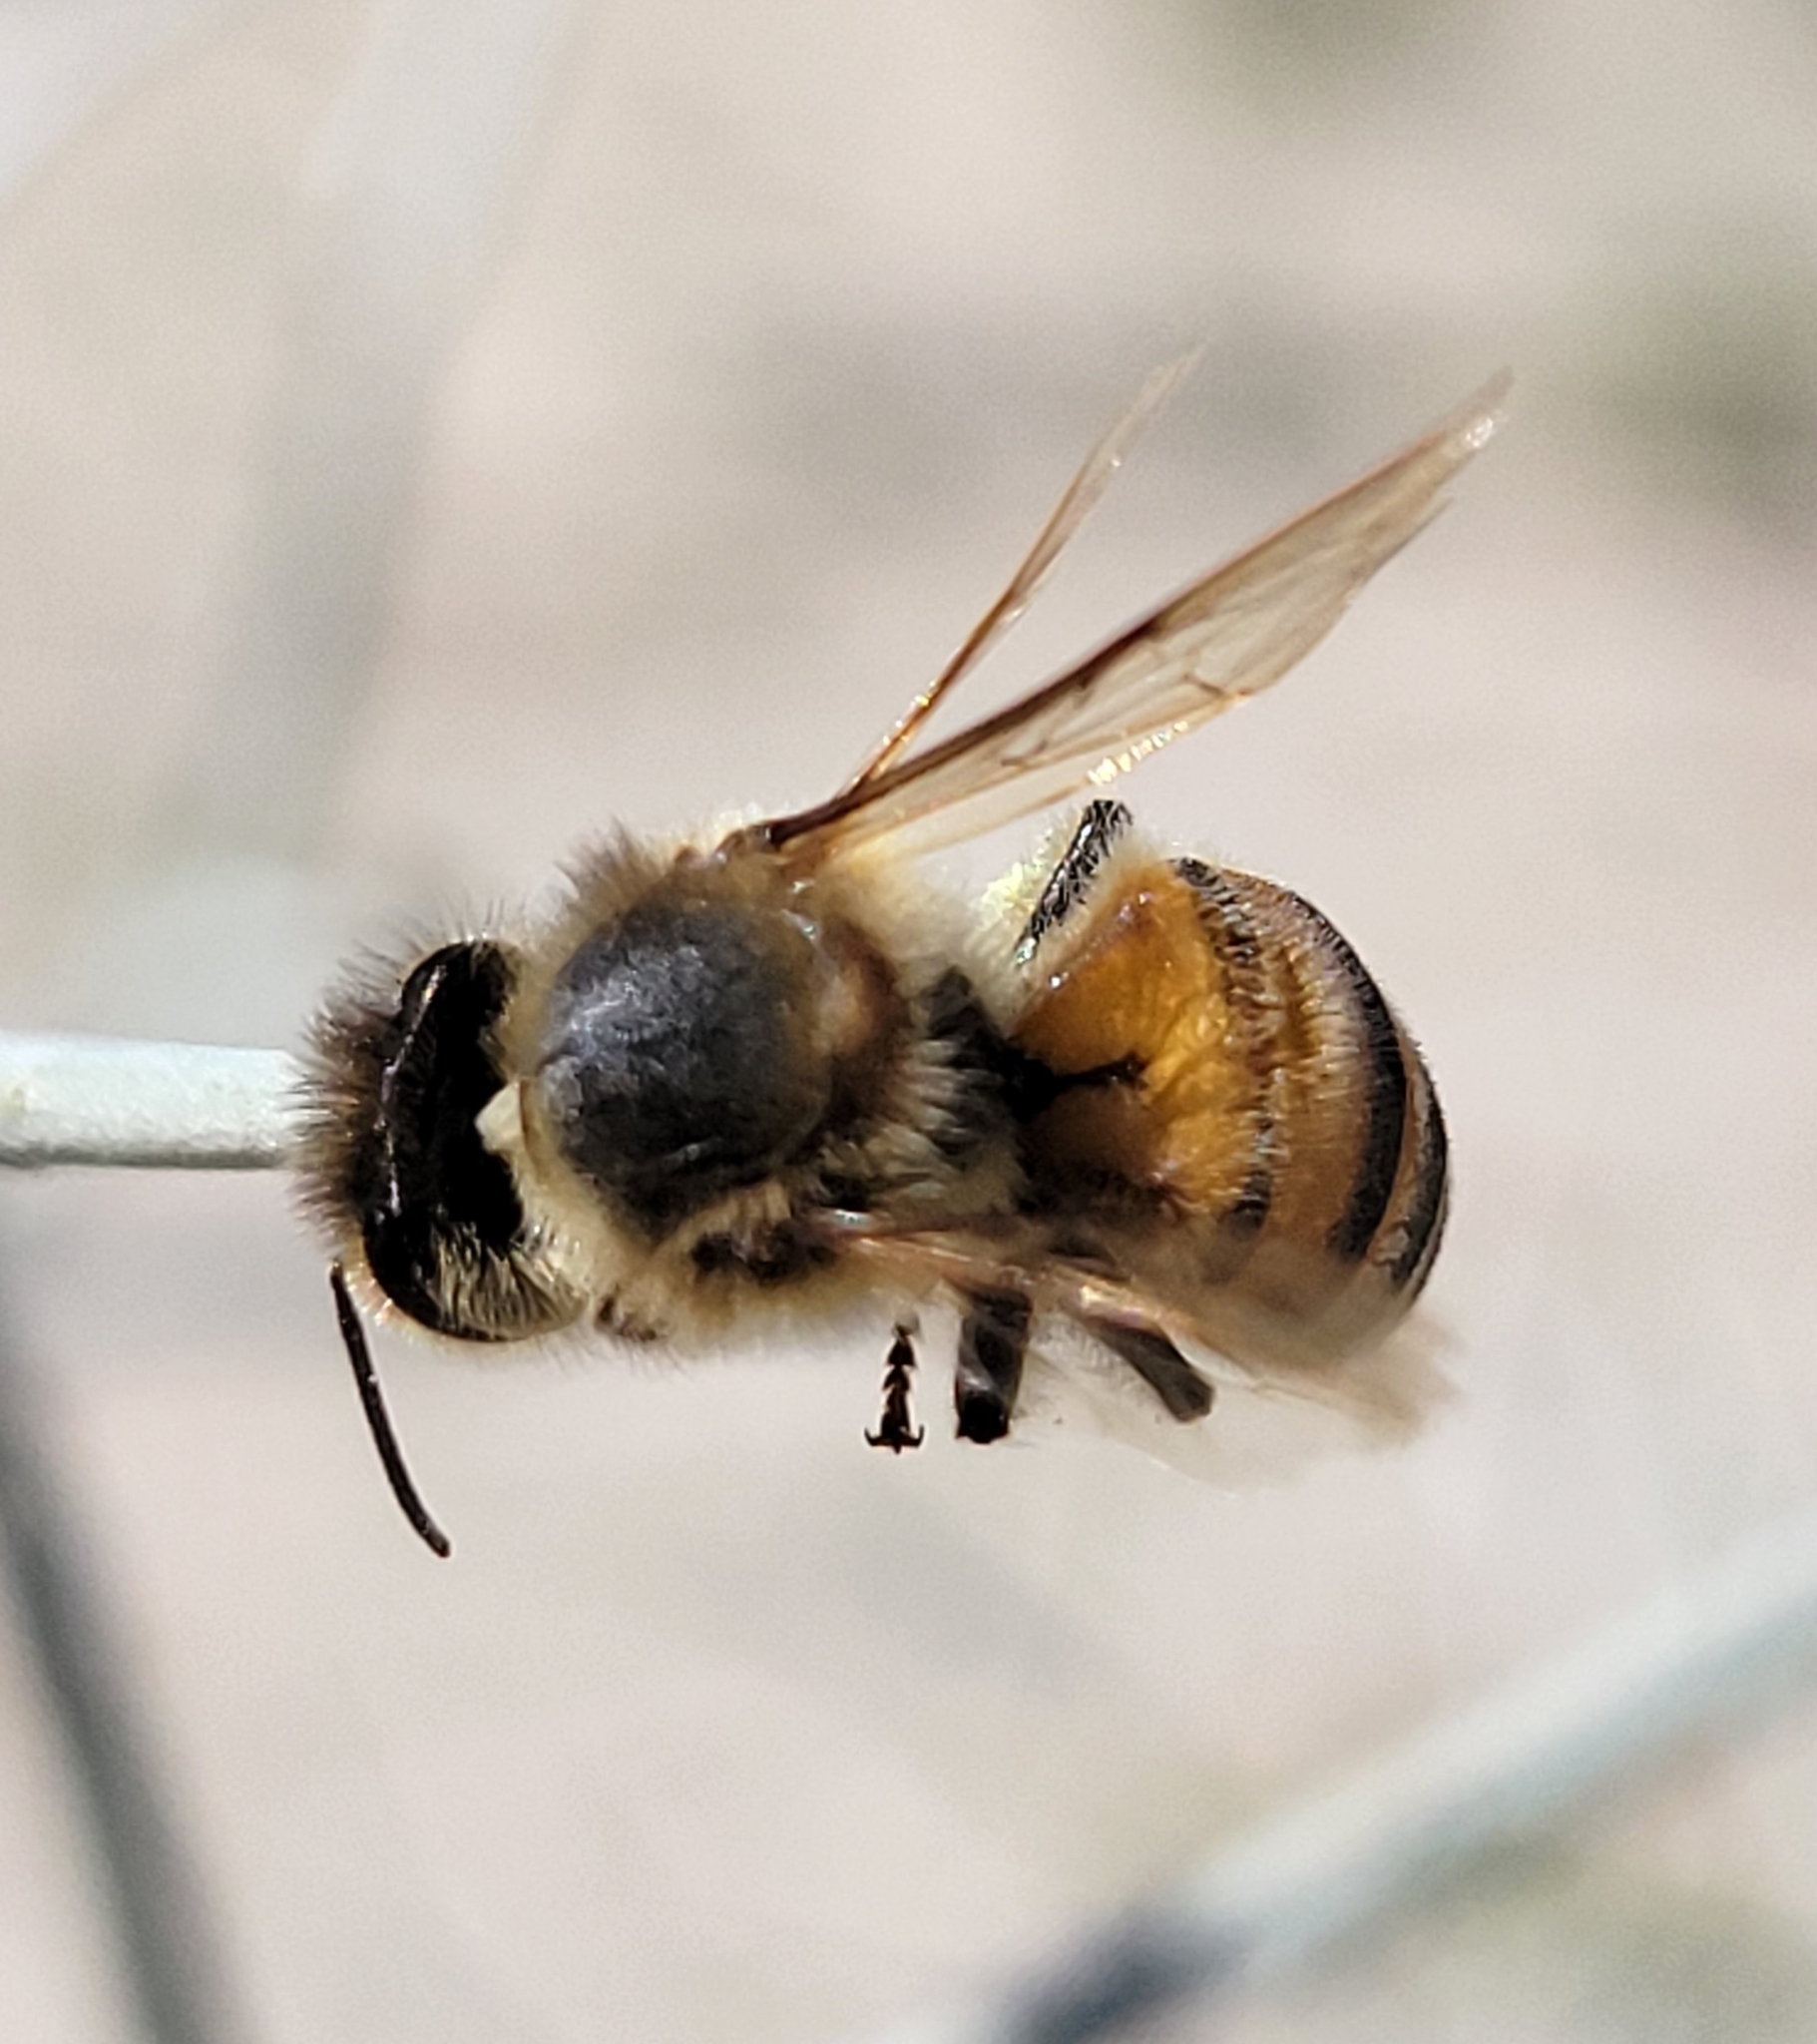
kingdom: Animalia
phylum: Arthropoda
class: Insecta
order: Hymenoptera
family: Apidae
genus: Apis
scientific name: Apis mellifera
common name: Honey bee
